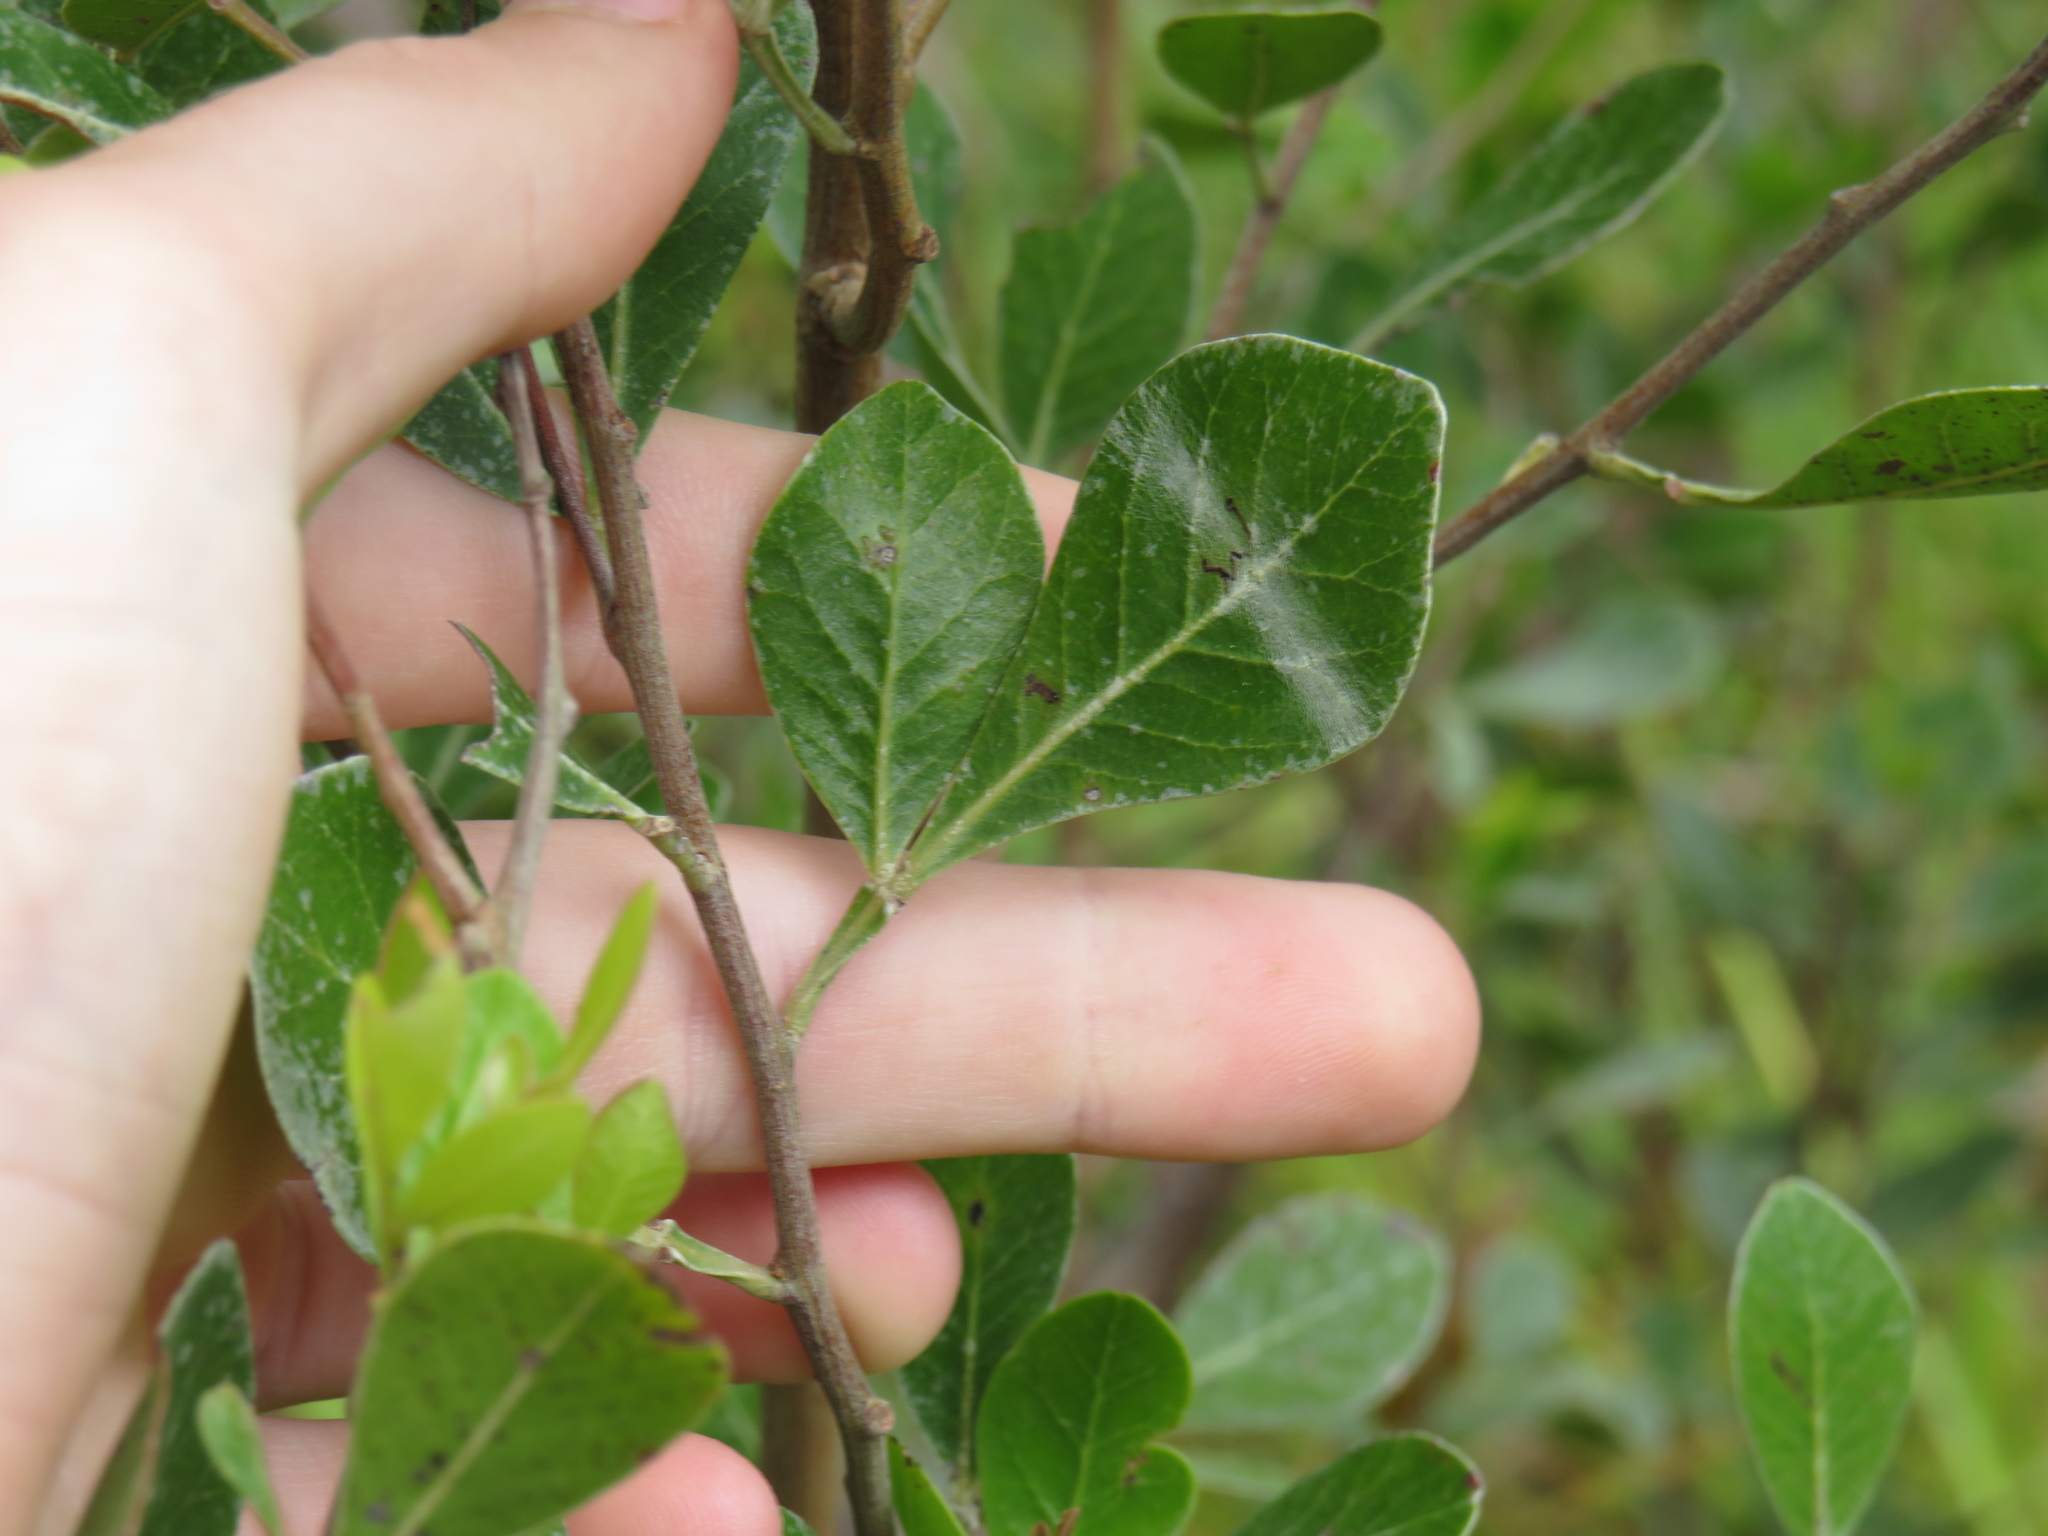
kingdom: Plantae
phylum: Tracheophyta
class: Magnoliopsida
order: Sapindales
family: Anacardiaceae
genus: Searsia
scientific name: Searsia lucida
